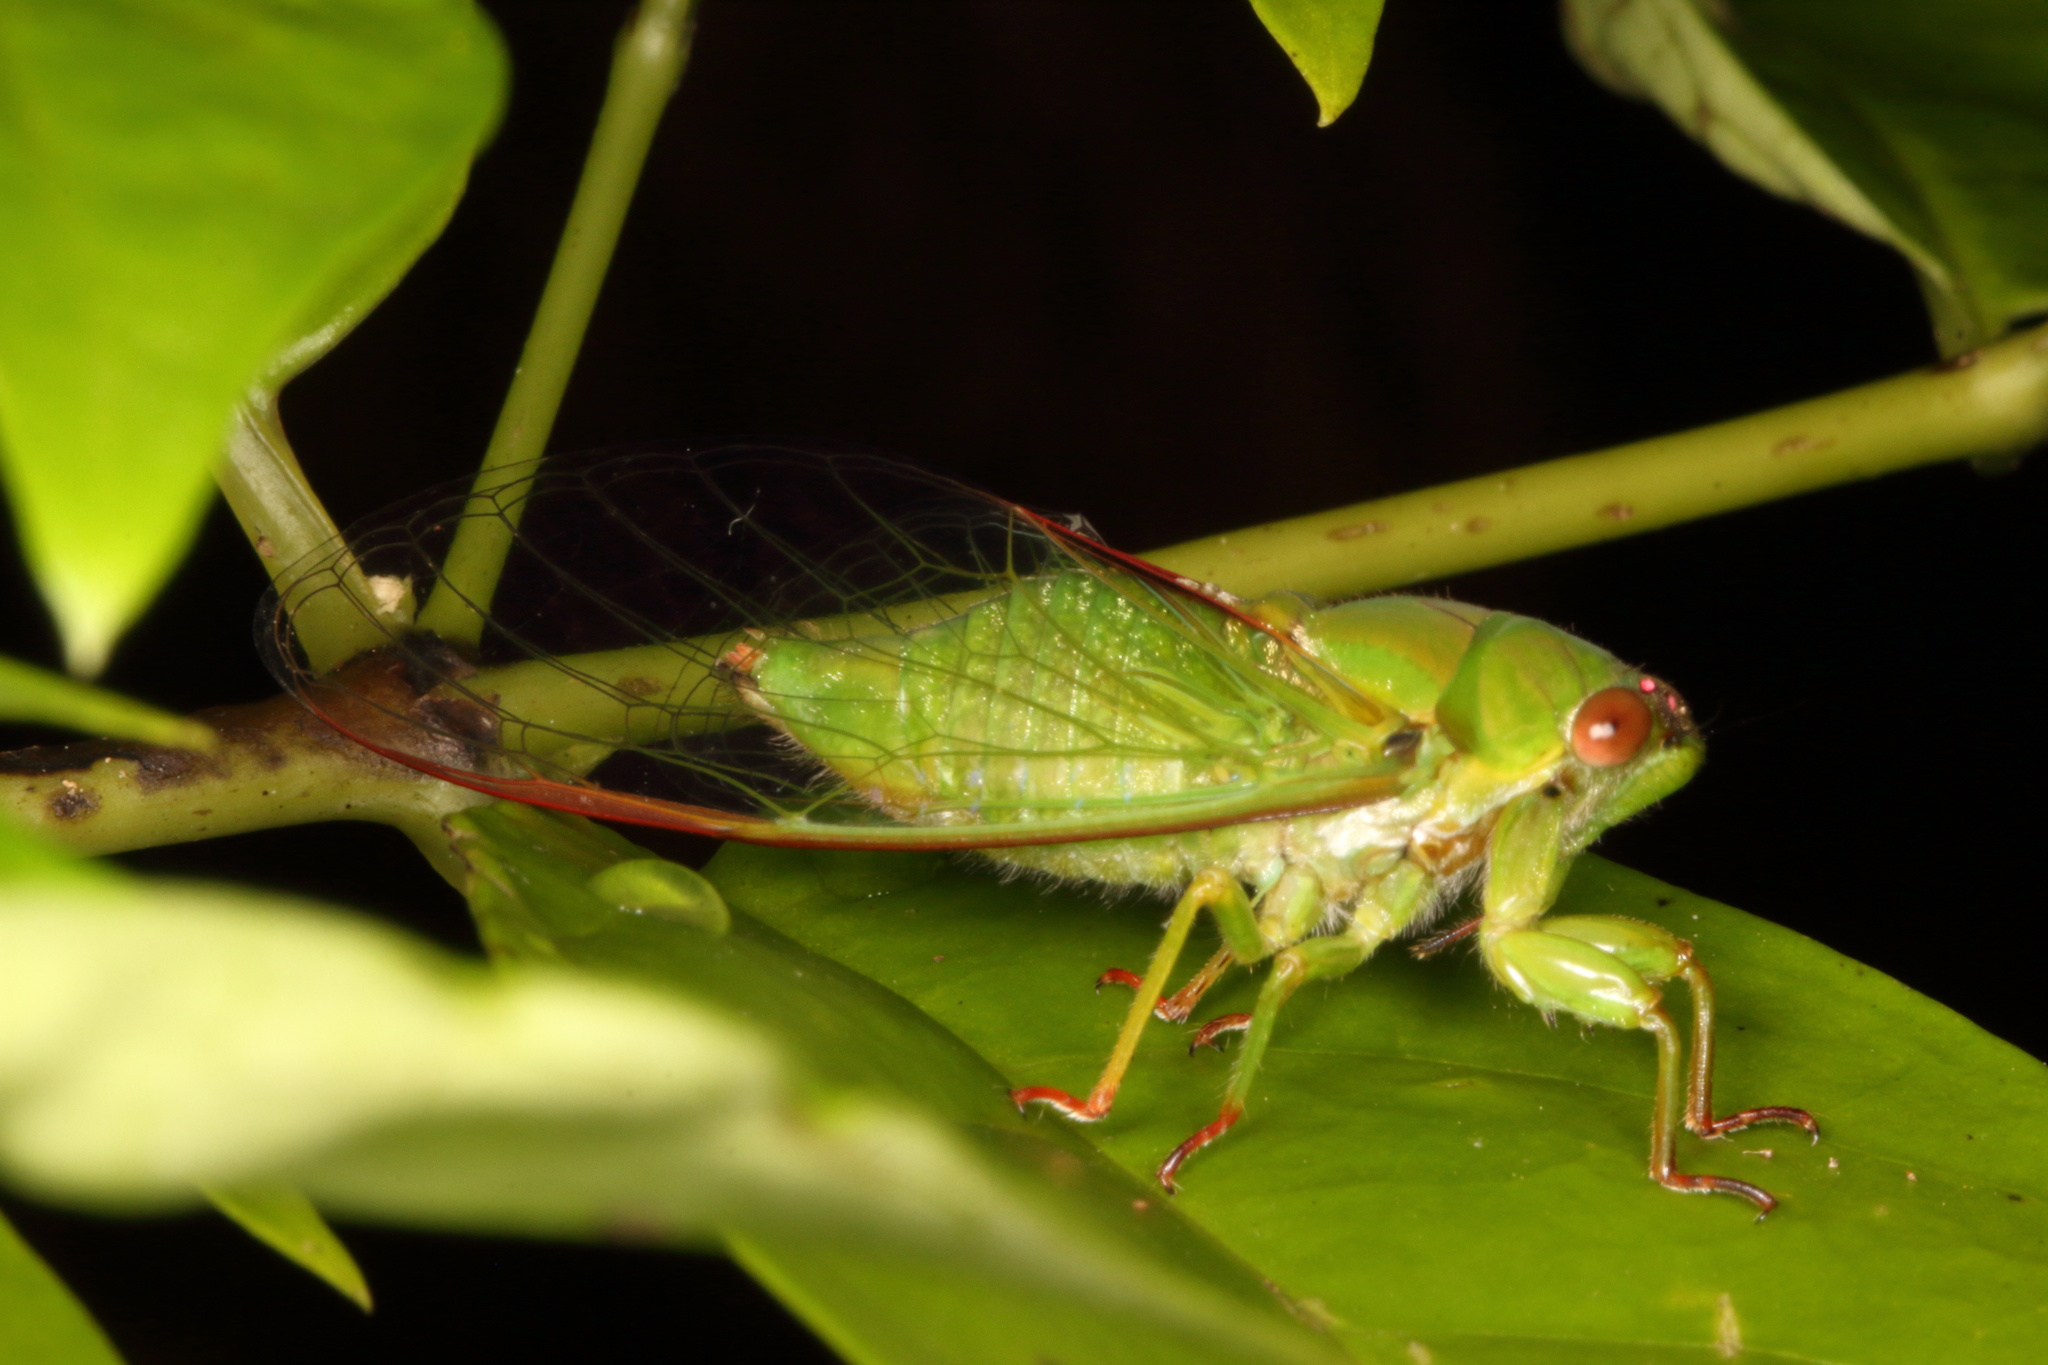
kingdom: Animalia
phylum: Arthropoda
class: Insecta
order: Hemiptera
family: Cicadidae
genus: Kikihia
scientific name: Kikihia ochrina
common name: April green cicada
